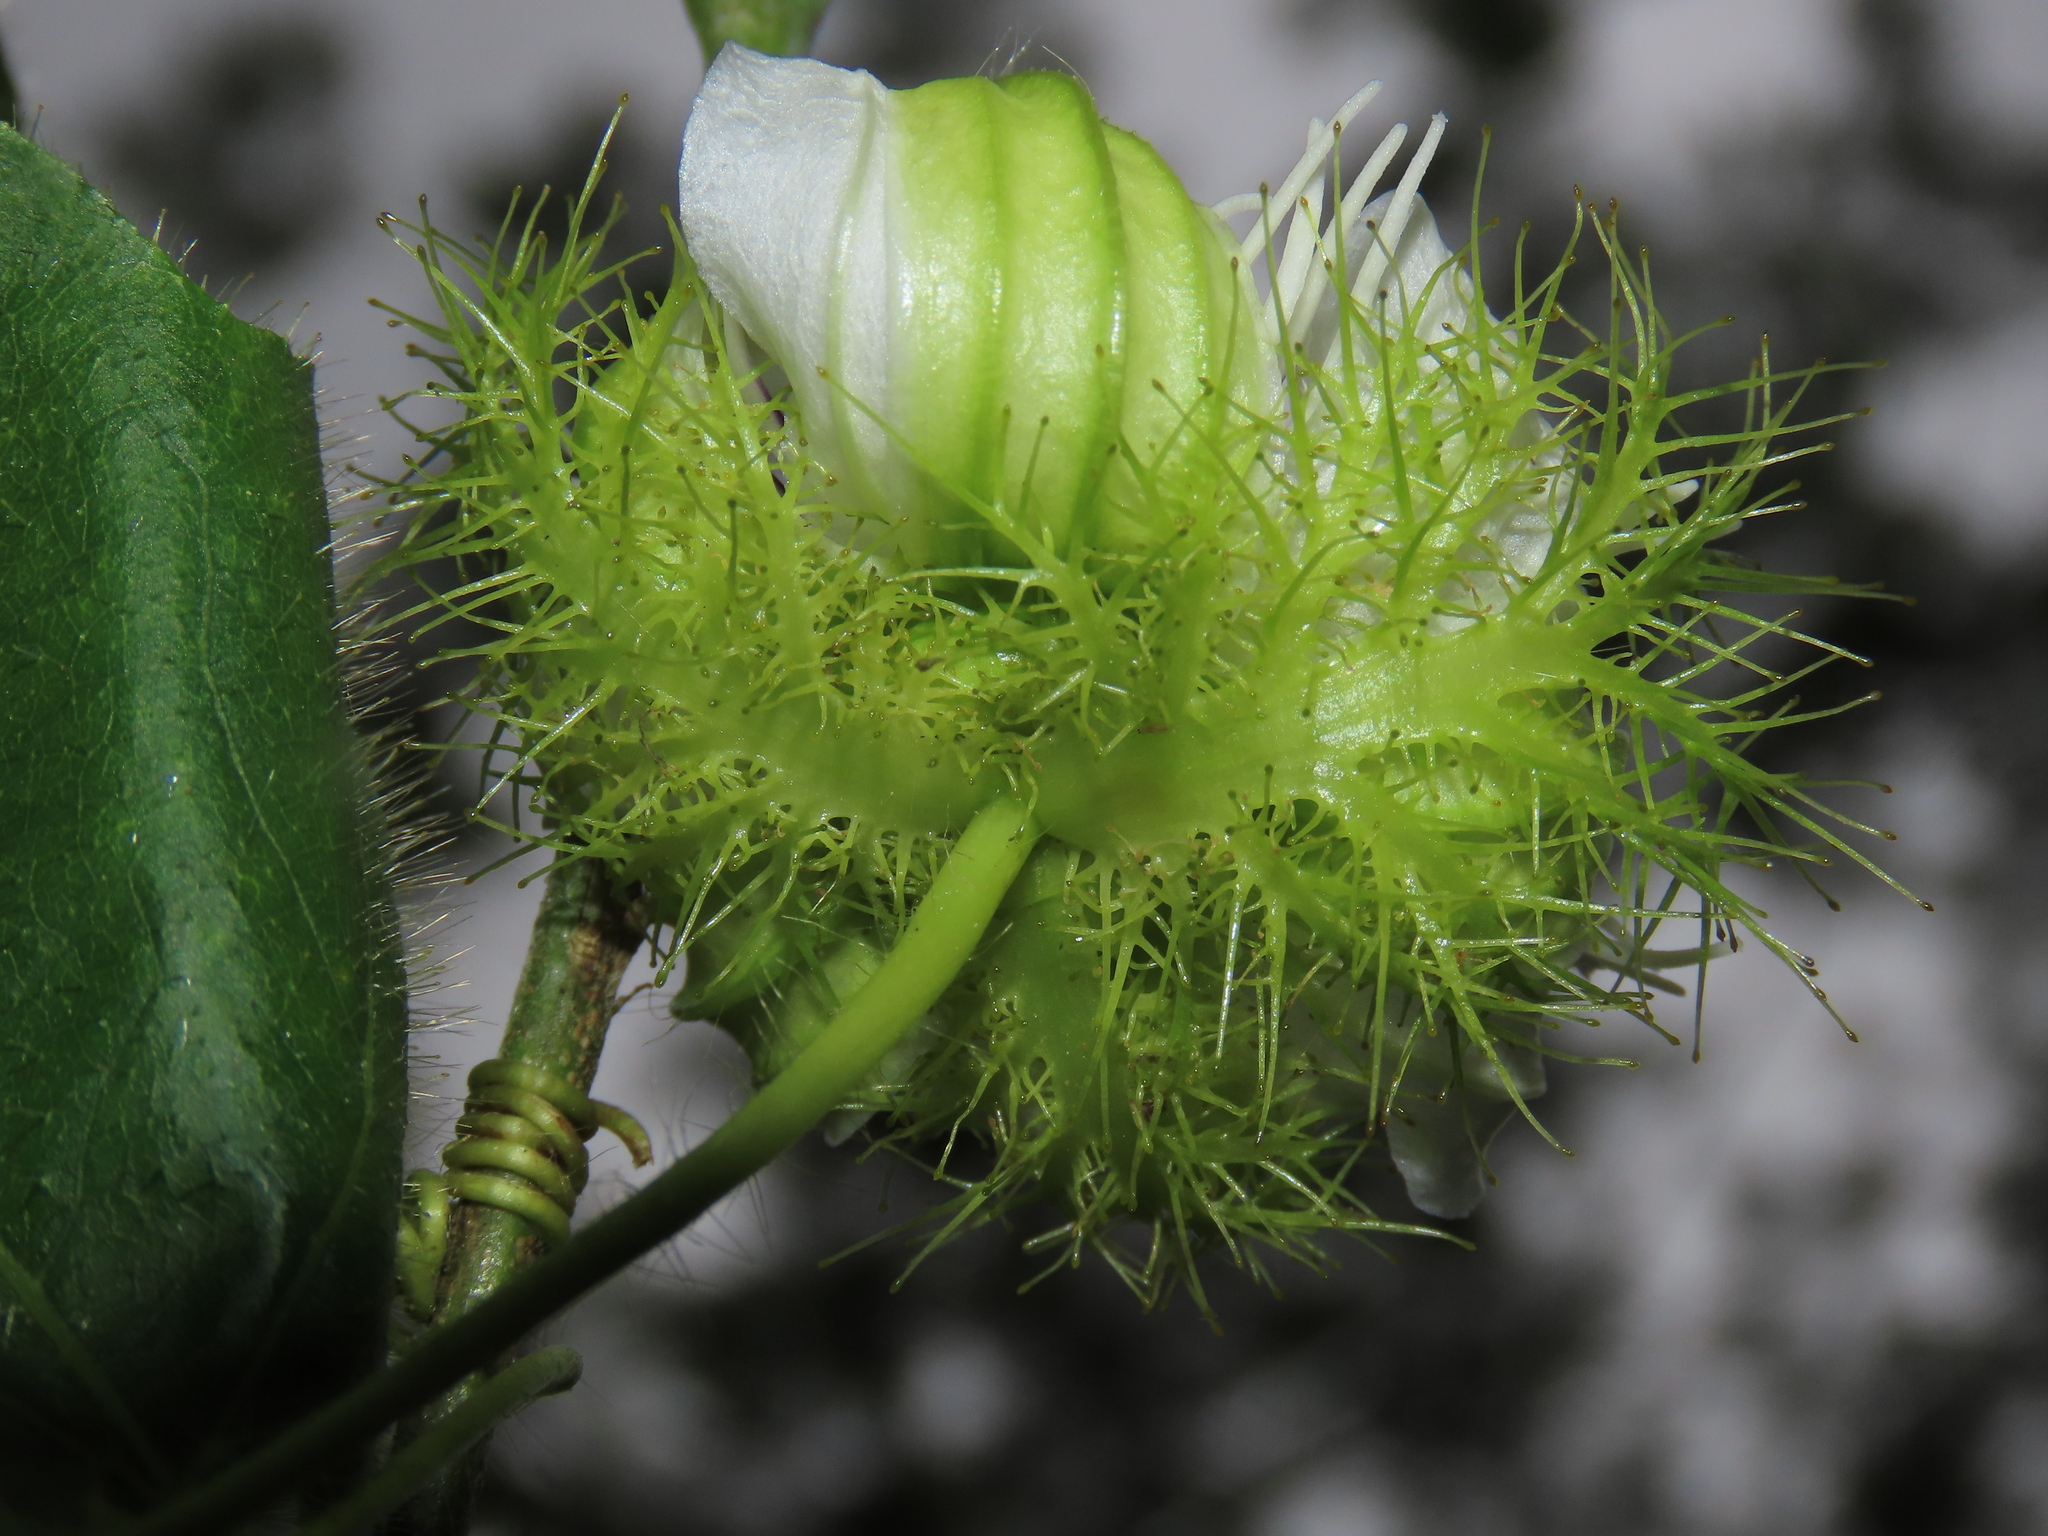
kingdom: Plantae
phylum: Tracheophyta
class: Magnoliopsida
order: Malpighiales
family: Passifloraceae
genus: Passiflora
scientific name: Passiflora vesicaria
